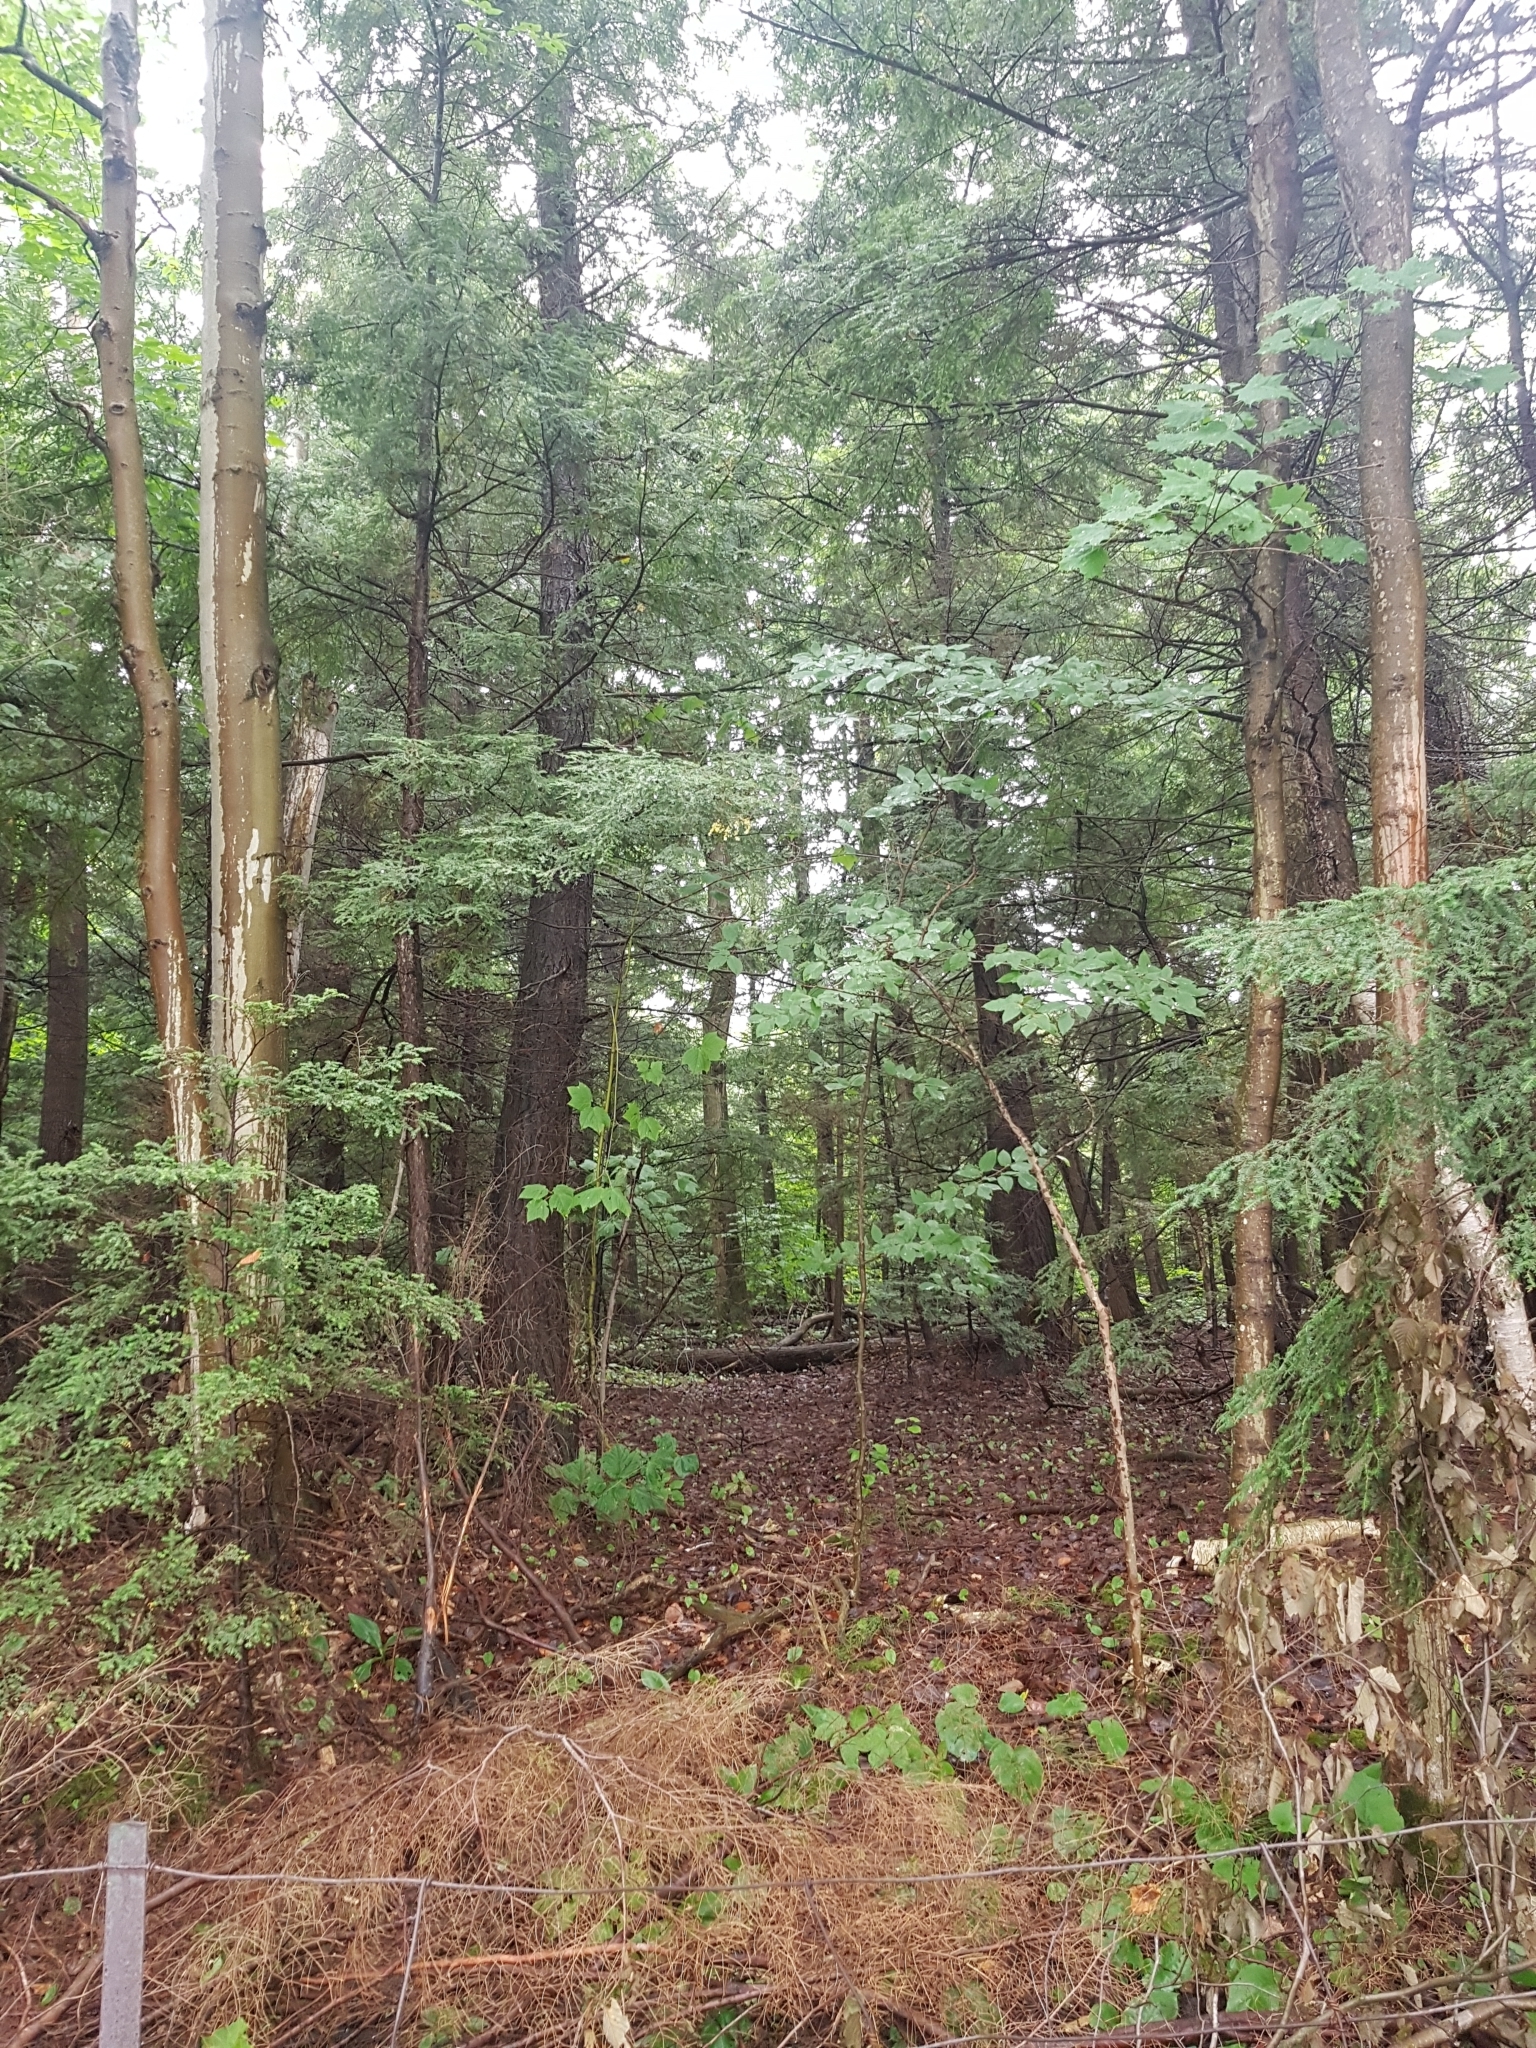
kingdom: Plantae
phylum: Tracheophyta
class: Pinopsida
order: Pinales
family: Pinaceae
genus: Tsuga
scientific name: Tsuga canadensis
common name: Eastern hemlock
